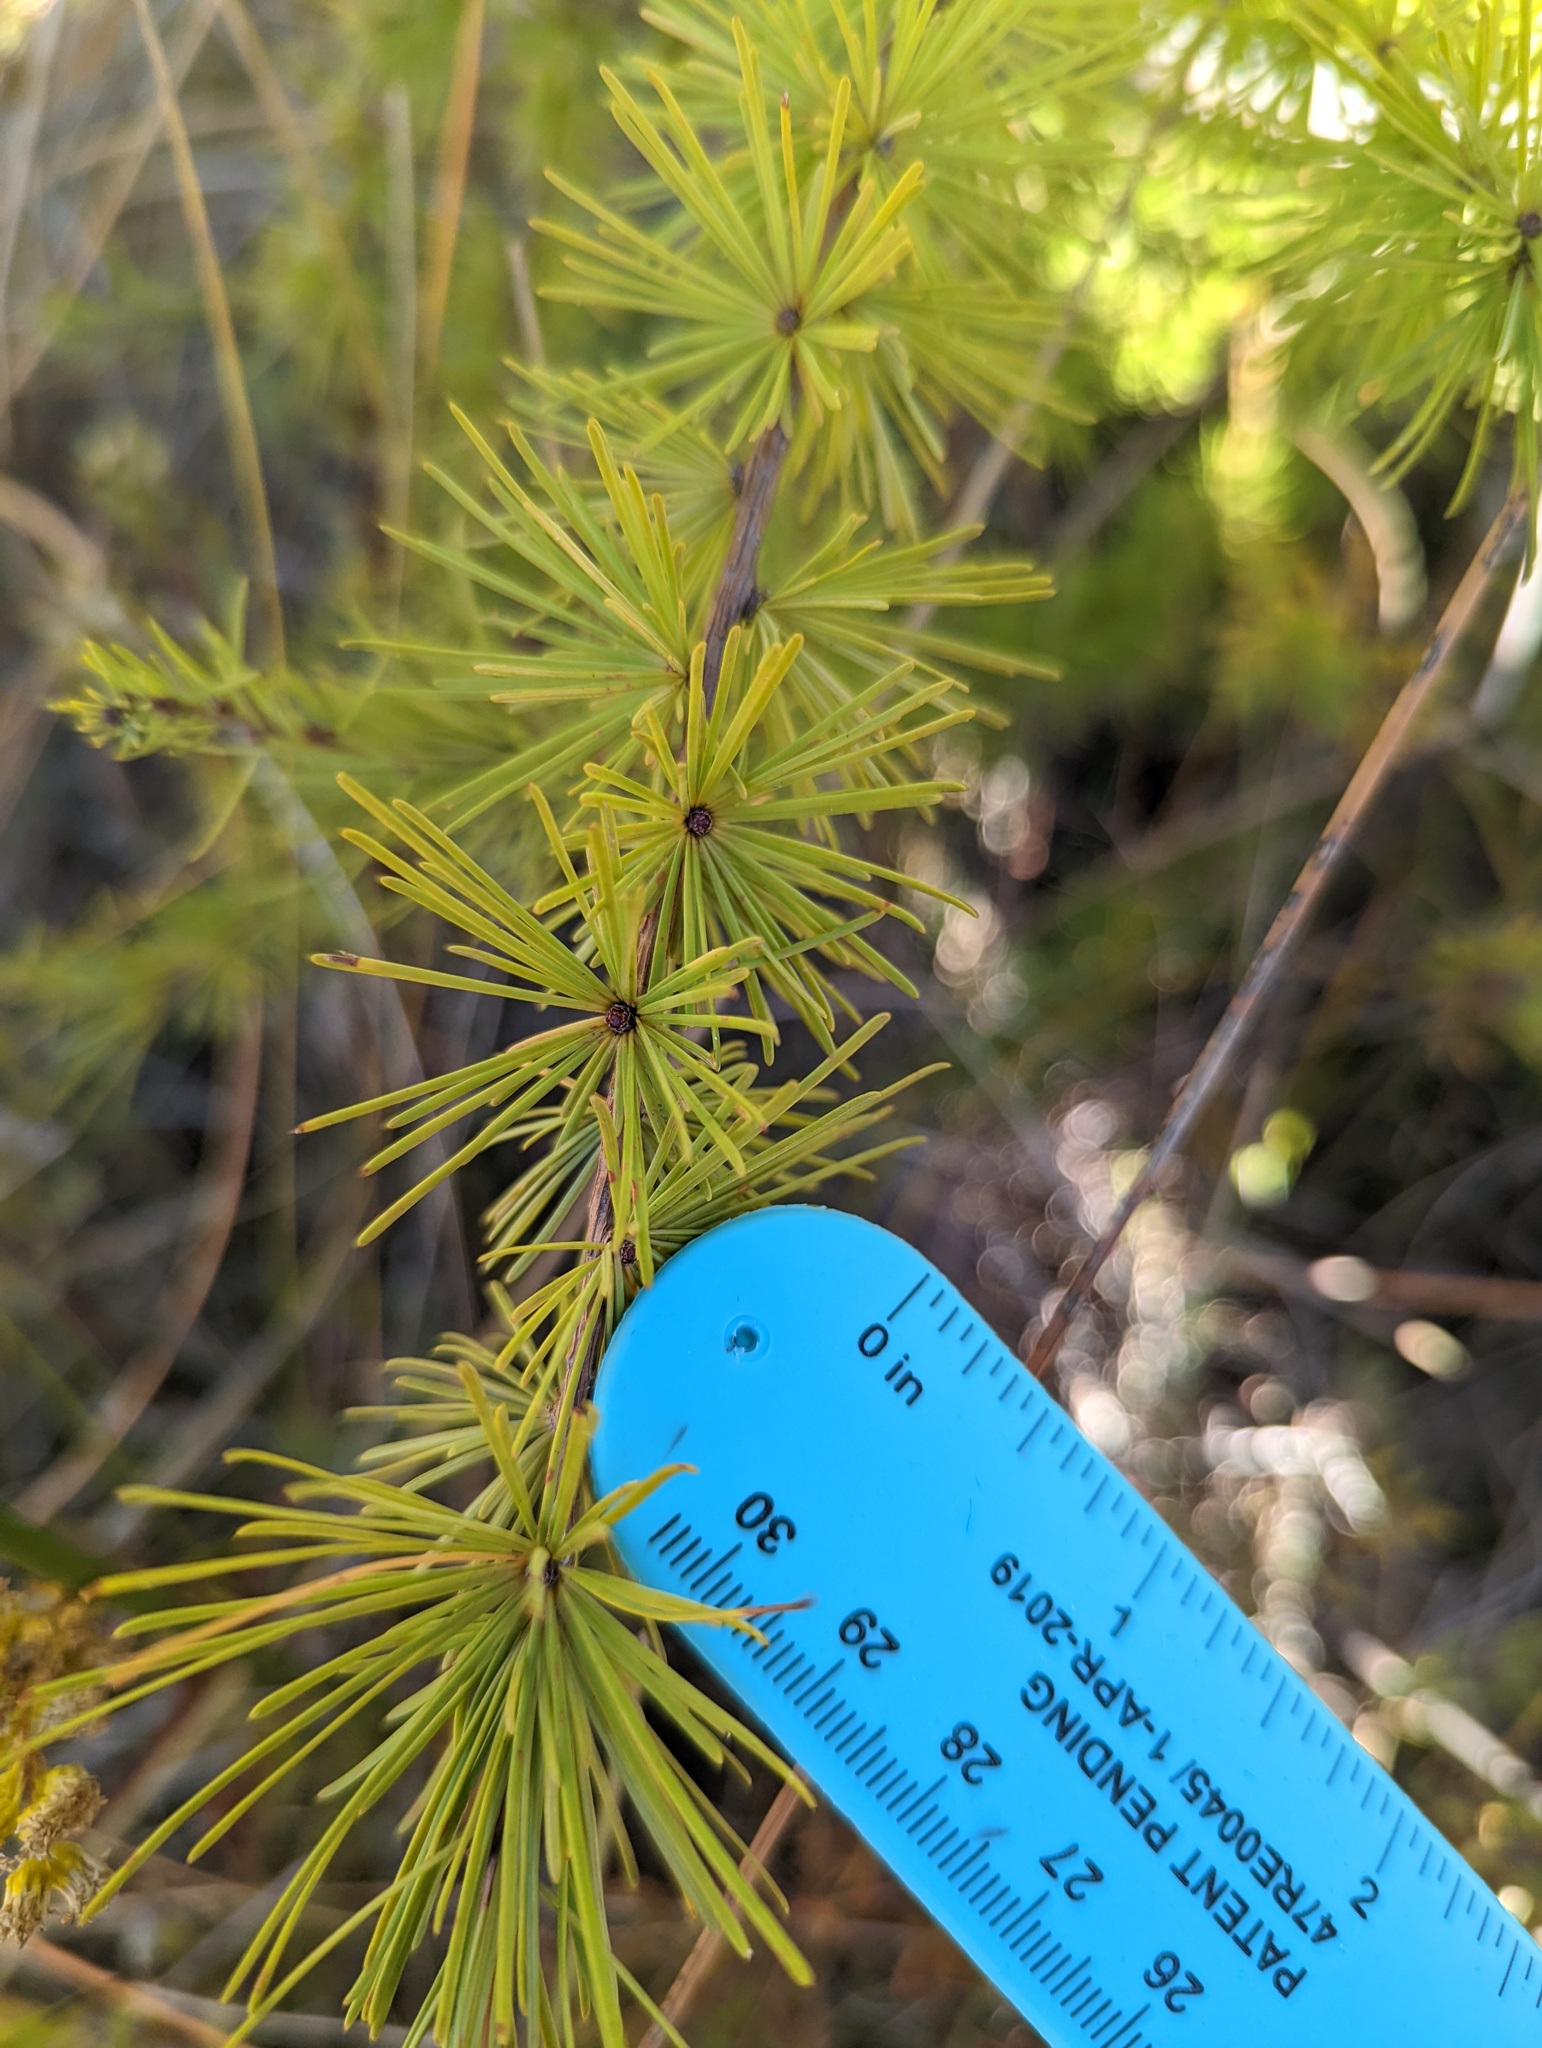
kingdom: Plantae
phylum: Tracheophyta
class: Pinopsida
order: Pinales
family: Pinaceae
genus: Larix
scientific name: Larix laricina
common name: American larch
